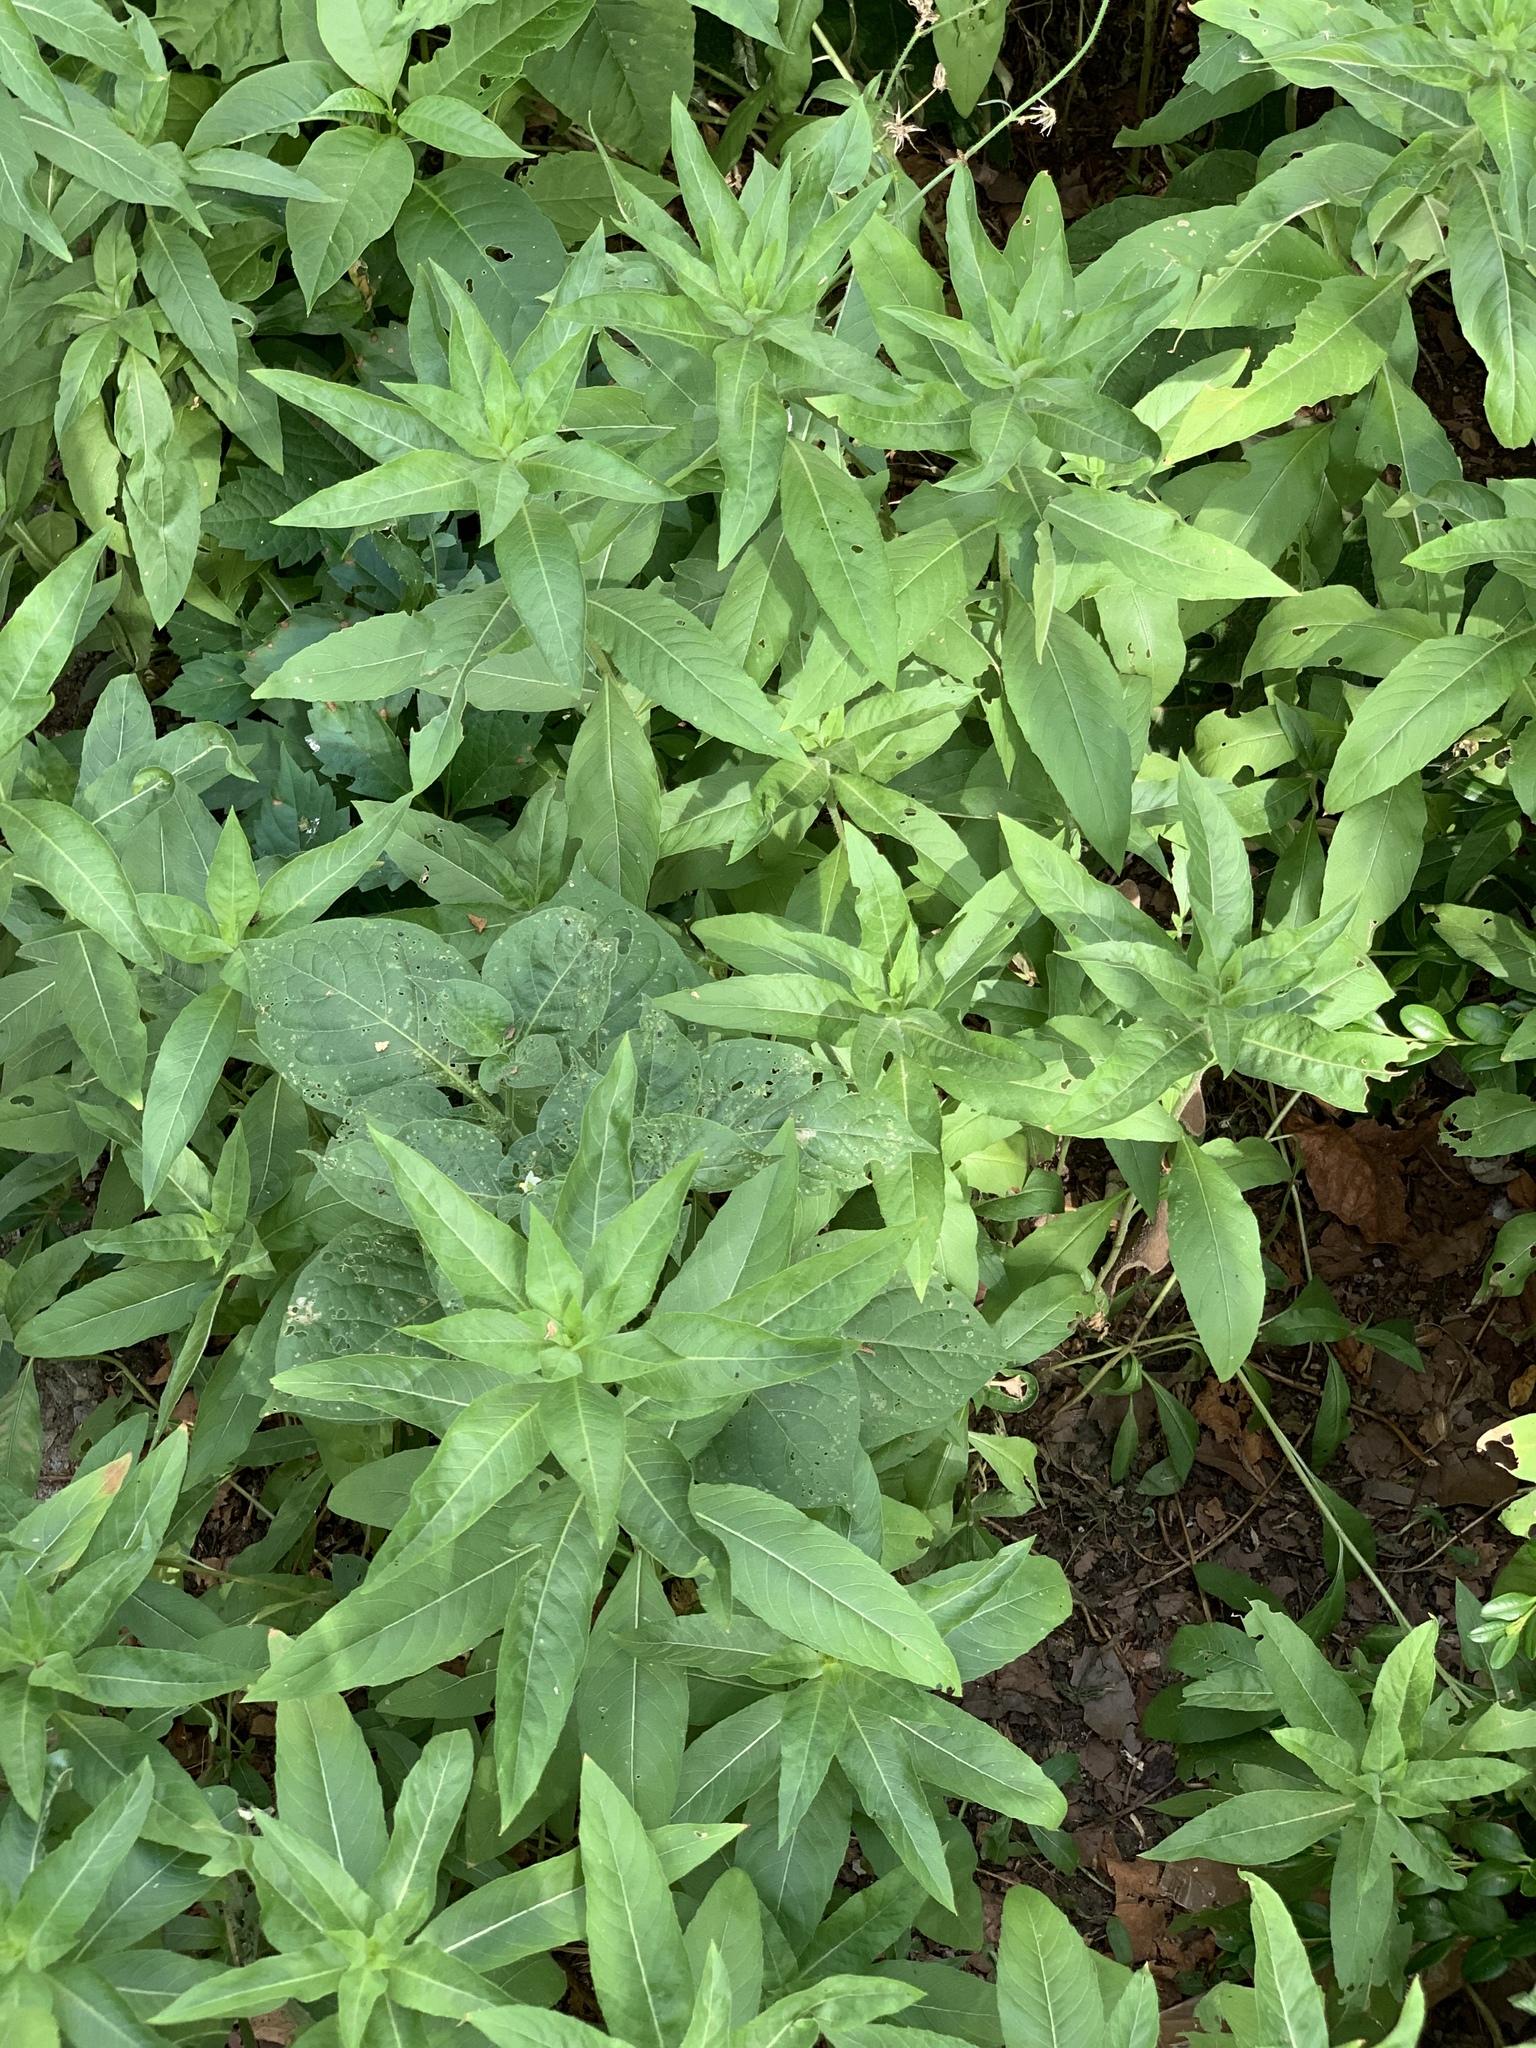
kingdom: Plantae
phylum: Tracheophyta
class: Magnoliopsida
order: Myrtales
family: Onagraceae
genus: Oenothera
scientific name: Oenothera biennis
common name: Common evening-primrose
